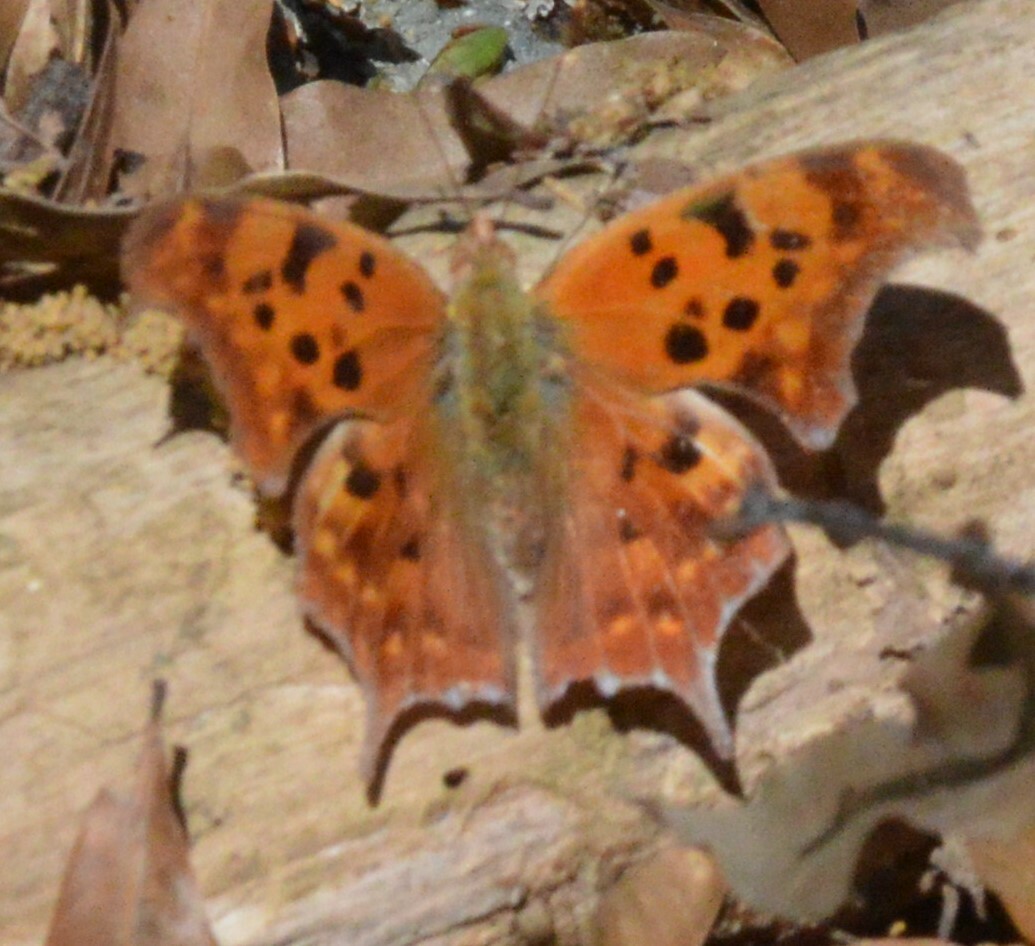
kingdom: Animalia
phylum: Arthropoda
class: Insecta
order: Lepidoptera
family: Nymphalidae
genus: Polygonia
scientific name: Polygonia interrogationis
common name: Question mark
